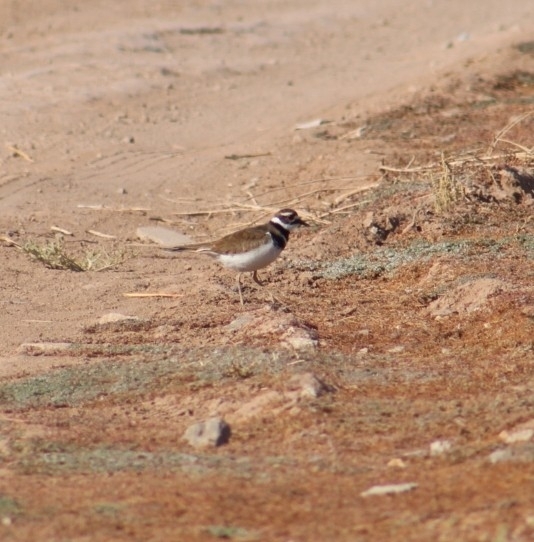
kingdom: Animalia
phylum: Chordata
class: Aves
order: Charadriiformes
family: Charadriidae
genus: Charadrius
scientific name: Charadrius vociferus
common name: Killdeer
